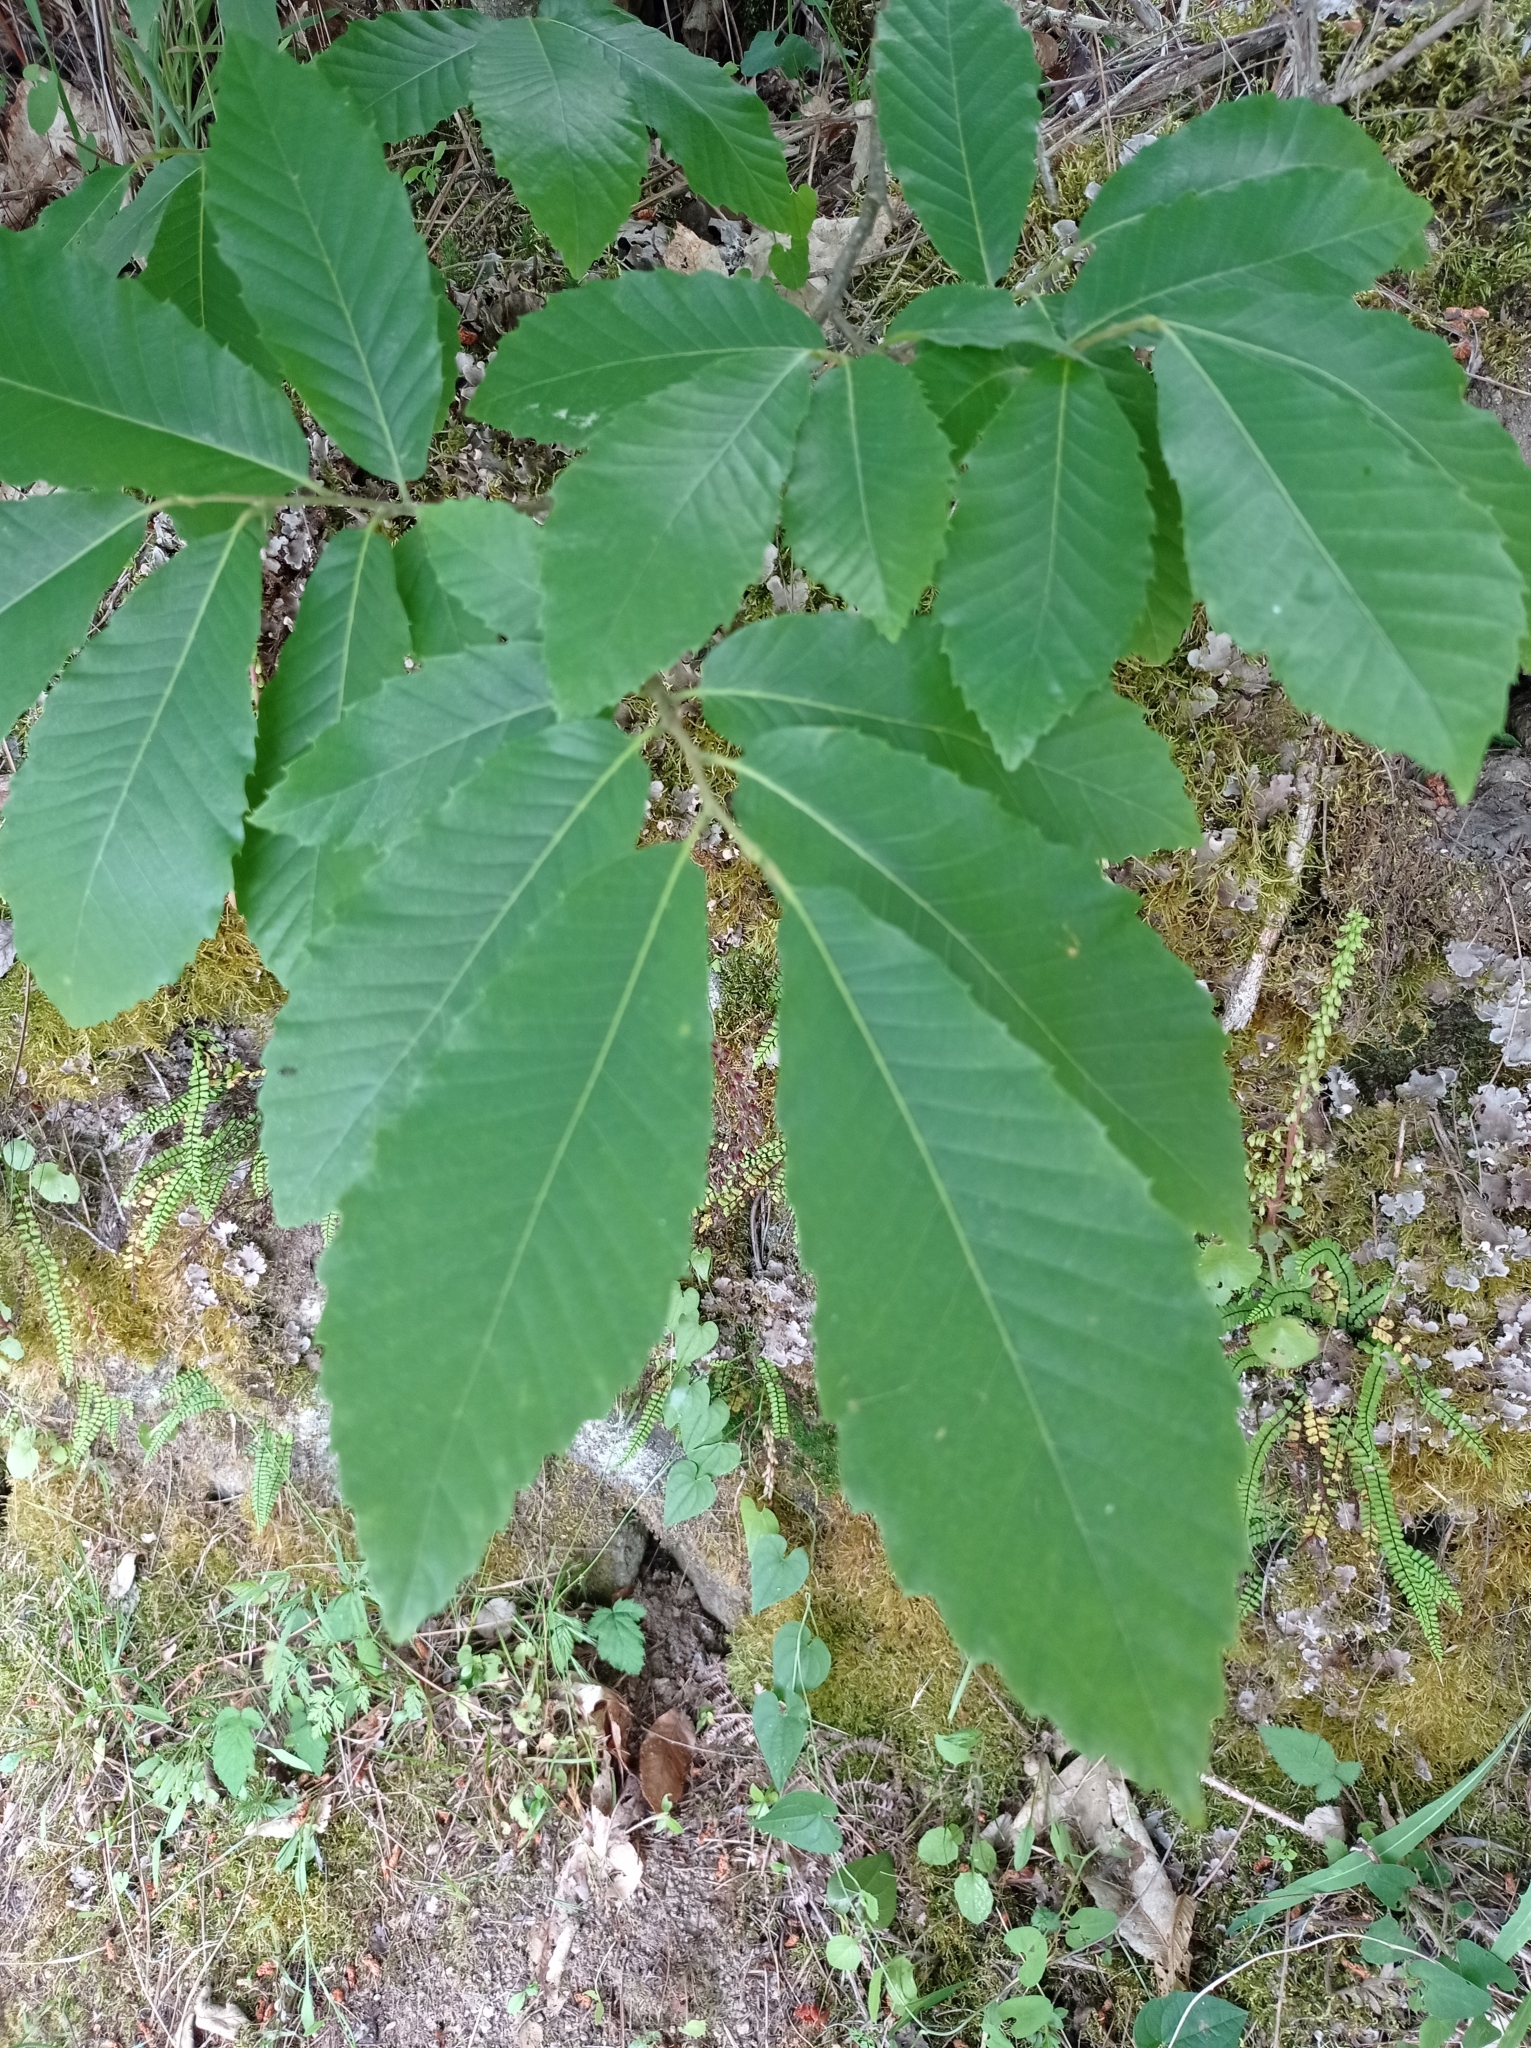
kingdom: Plantae
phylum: Tracheophyta
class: Magnoliopsida
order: Fagales
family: Fagaceae
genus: Castanea
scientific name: Castanea sativa
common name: Sweet chestnut
